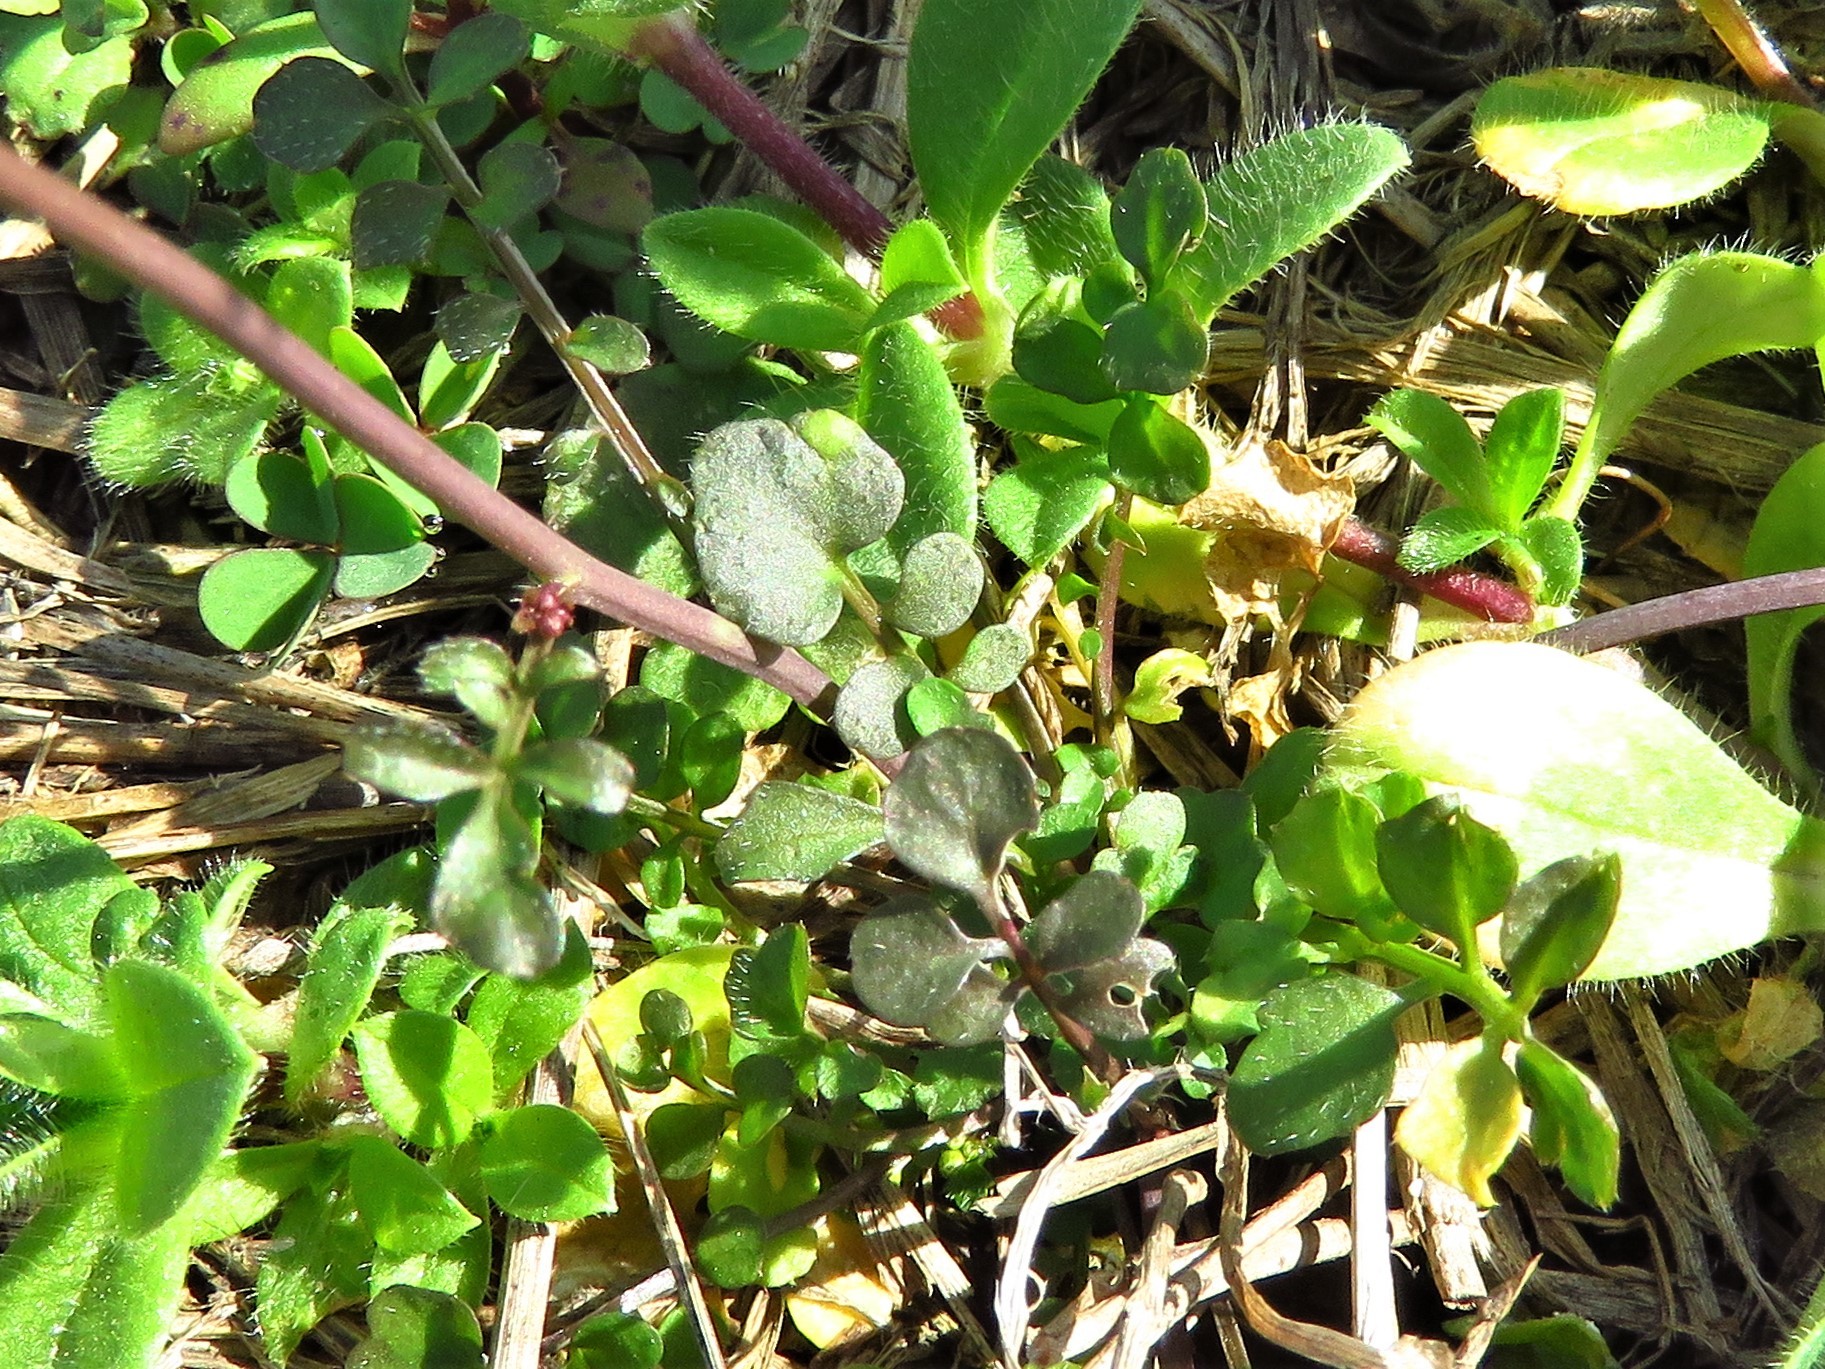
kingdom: Plantae
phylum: Tracheophyta
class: Magnoliopsida
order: Brassicales
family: Brassicaceae
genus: Cardamine
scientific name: Cardamine hirsuta
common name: Hairy bittercress
